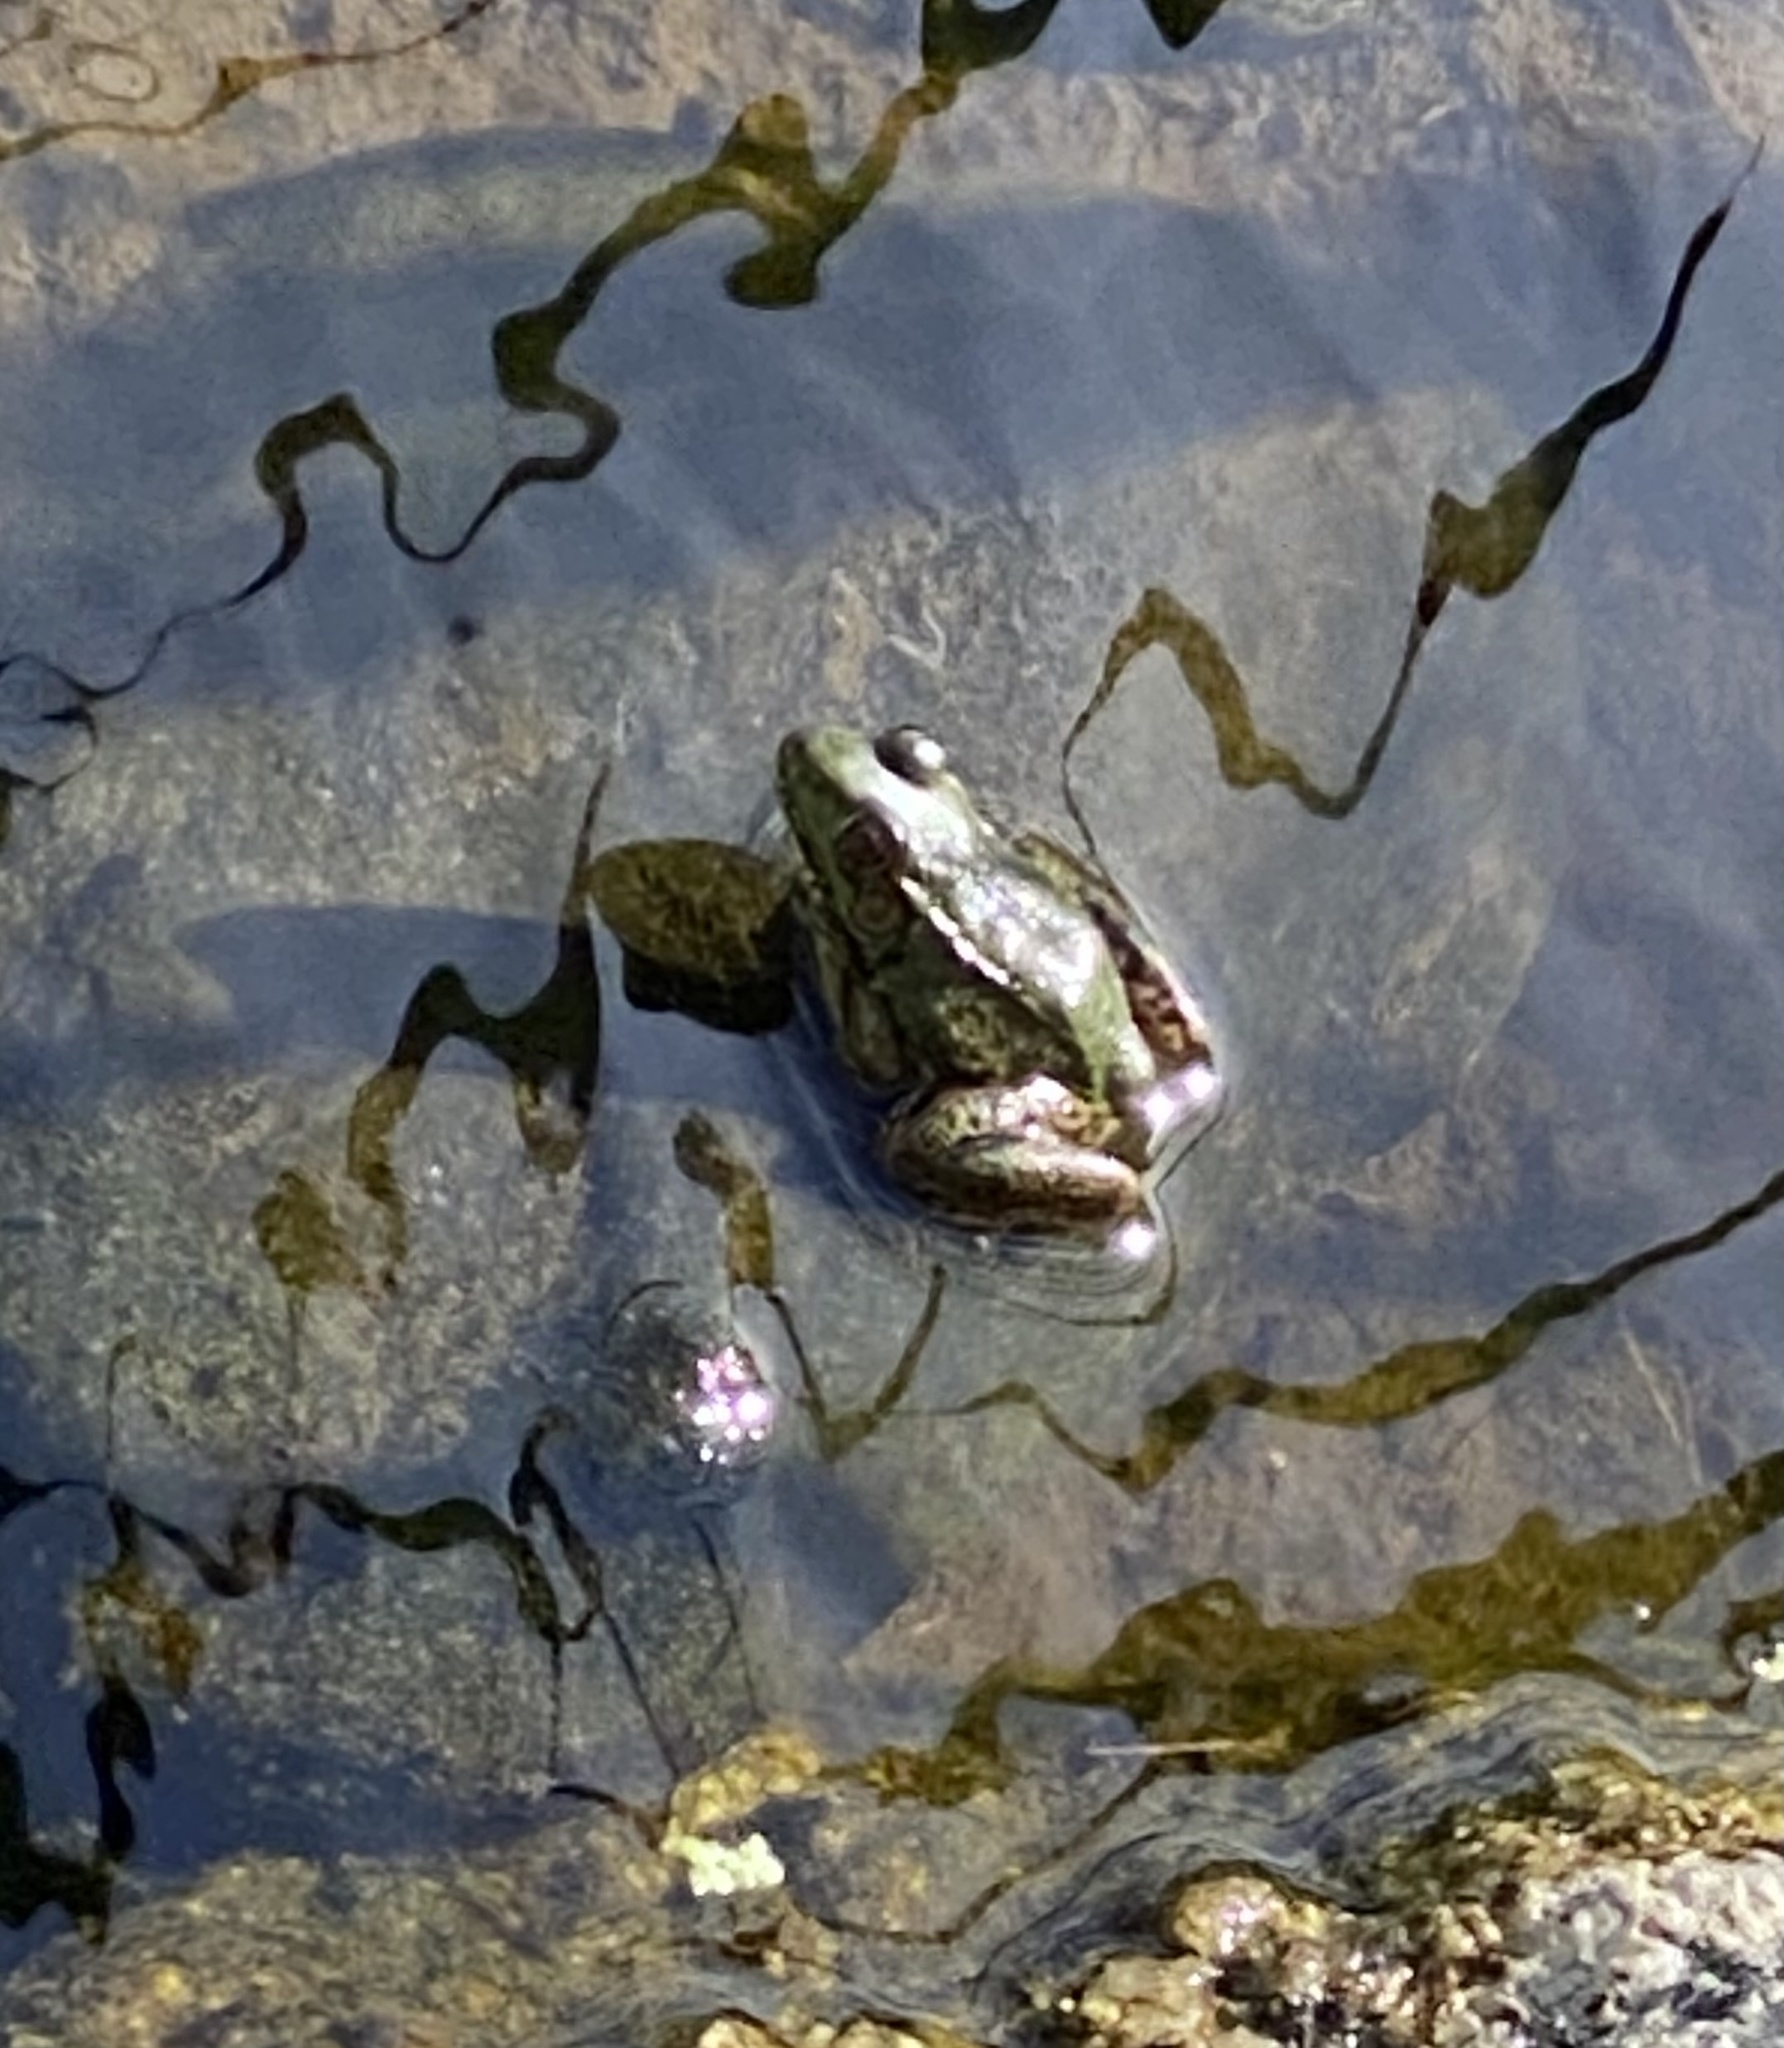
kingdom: Animalia
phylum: Chordata
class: Amphibia
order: Anura
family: Ranidae
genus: Lithobates
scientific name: Lithobates clamitans
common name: Green frog
